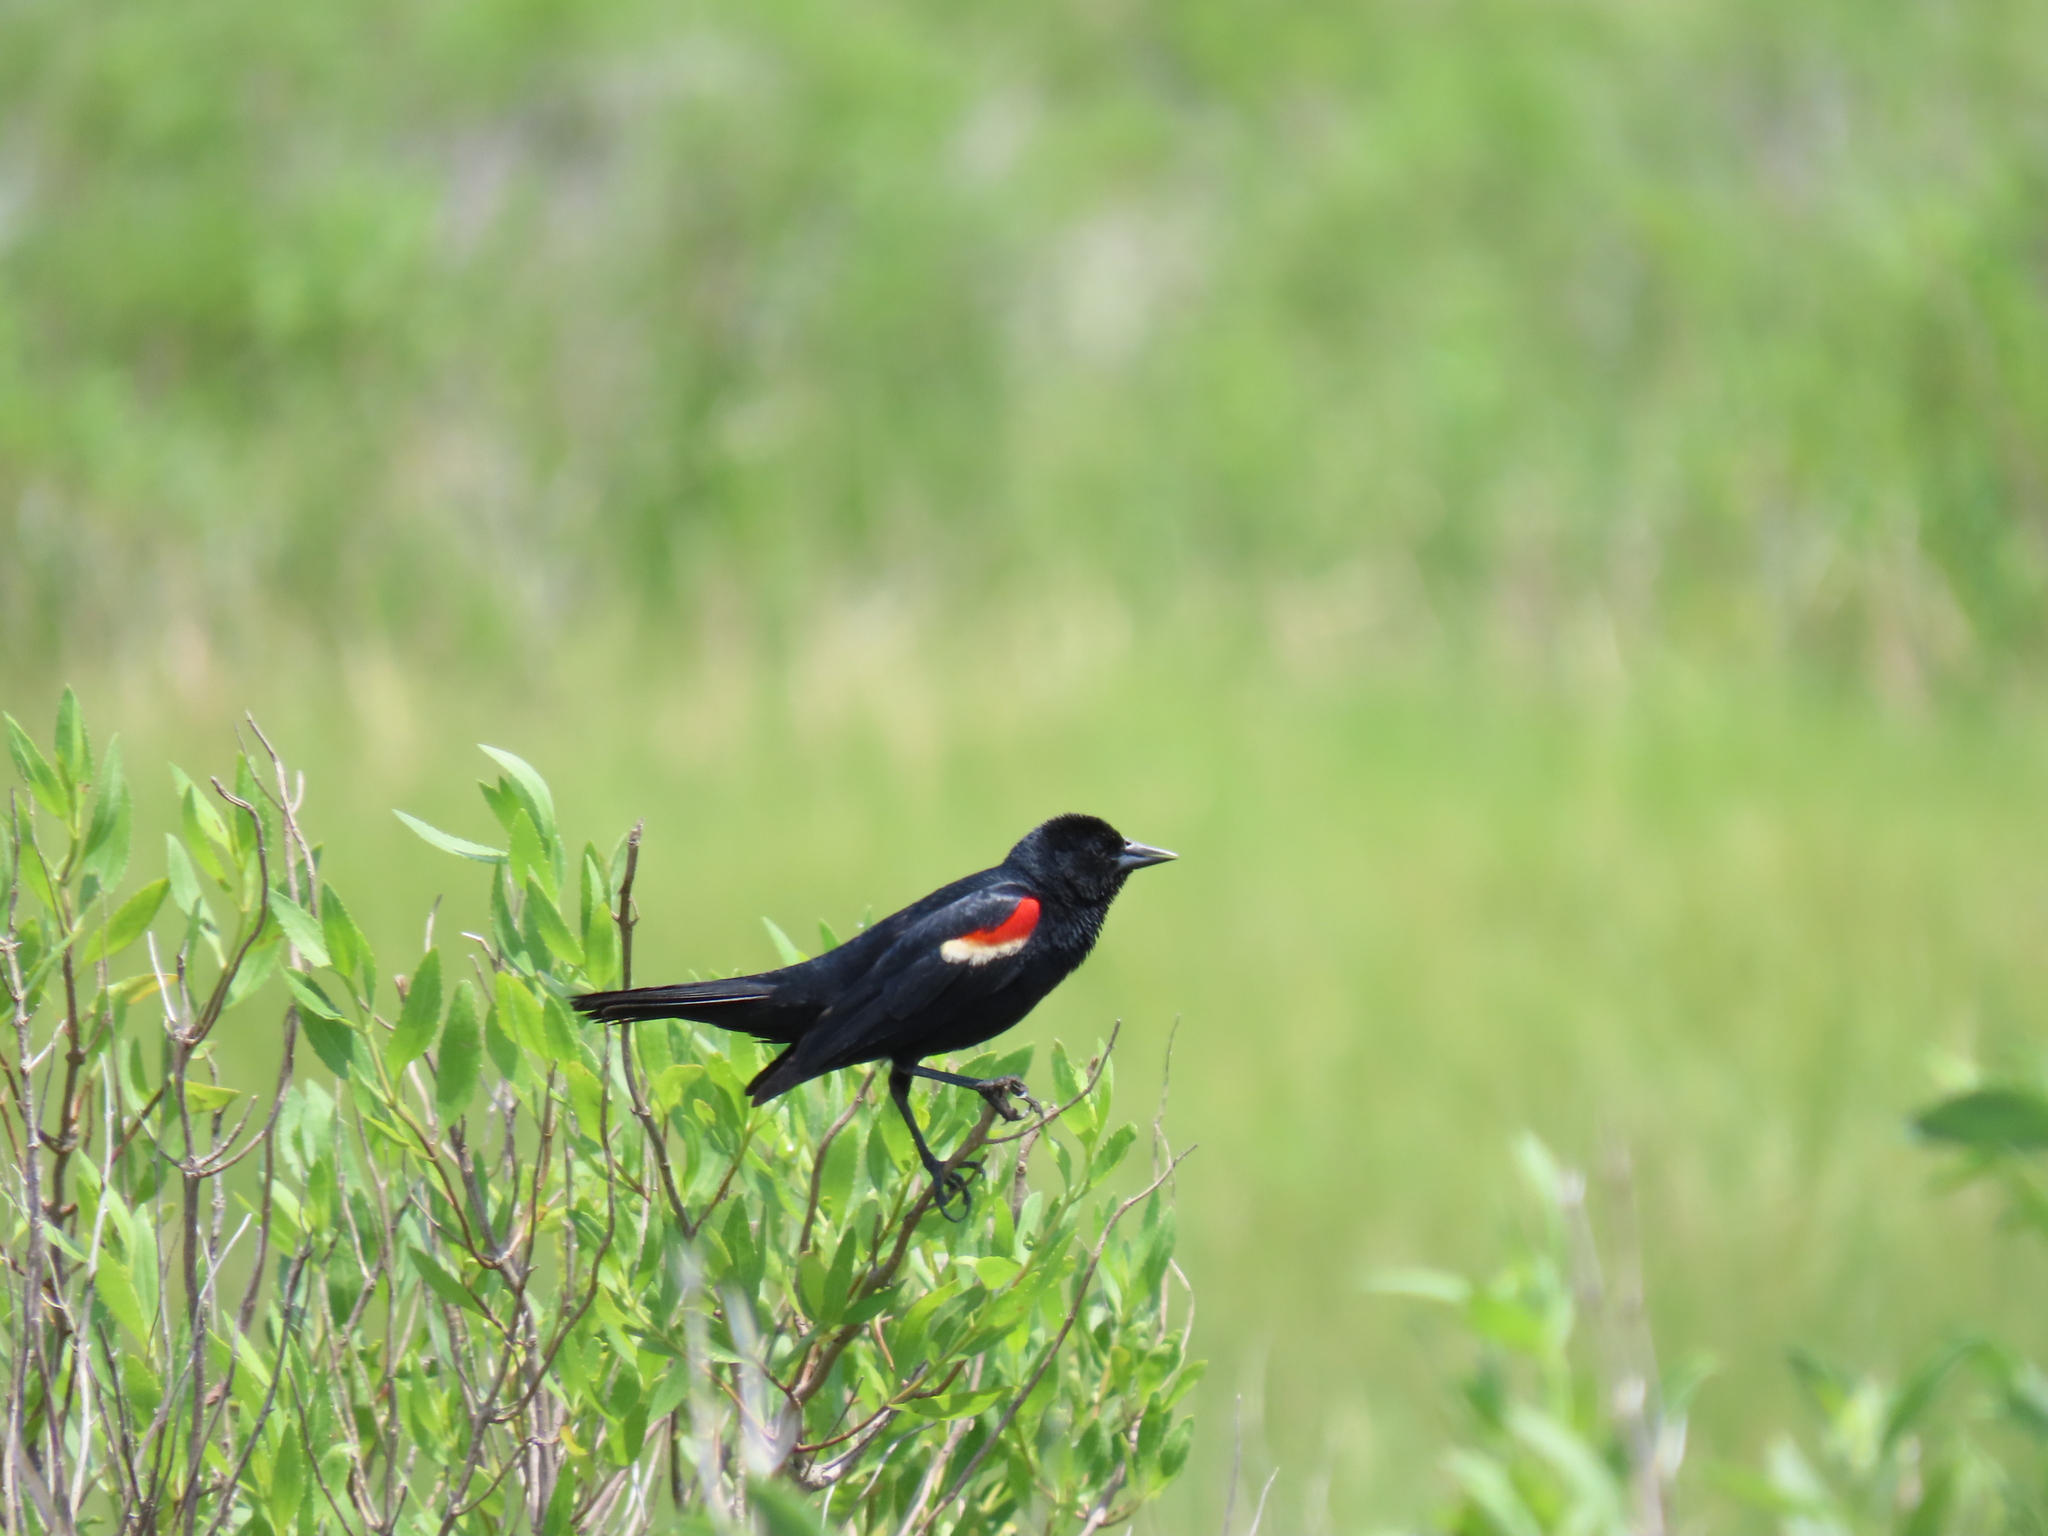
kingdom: Animalia
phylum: Chordata
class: Aves
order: Passeriformes
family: Icteridae
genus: Agelaius
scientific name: Agelaius phoeniceus
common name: Red-winged blackbird
